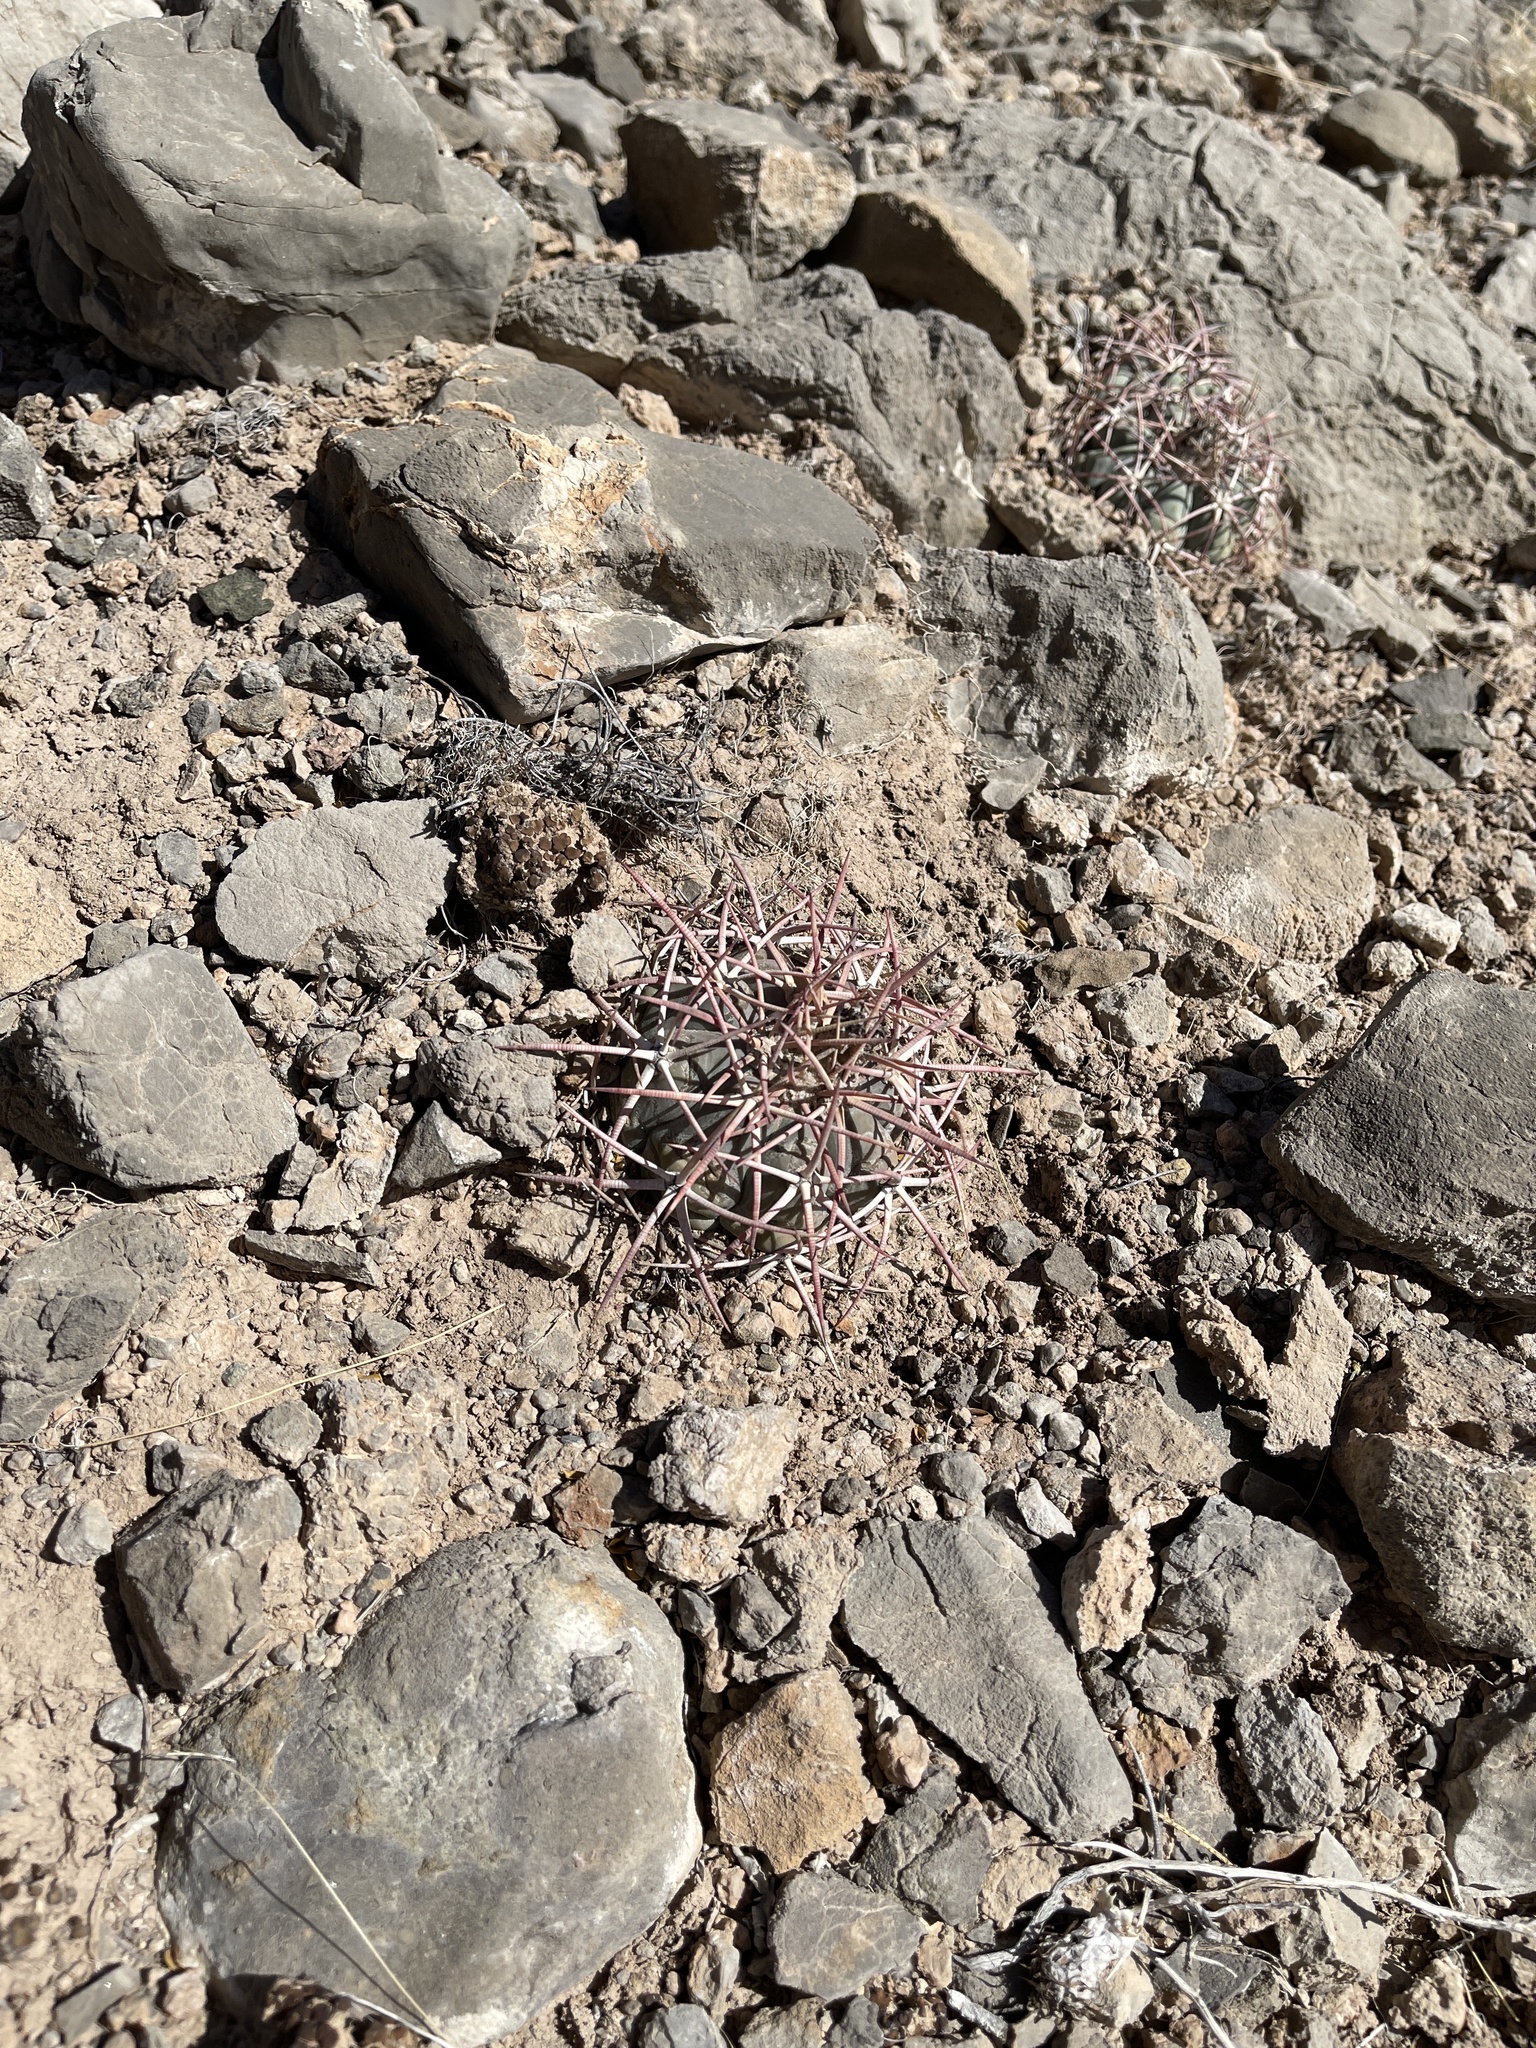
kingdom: Plantae
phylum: Tracheophyta
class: Magnoliopsida
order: Caryophyllales
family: Cactaceae
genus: Echinocactus
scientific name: Echinocactus horizonthalonius
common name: Devilshead
